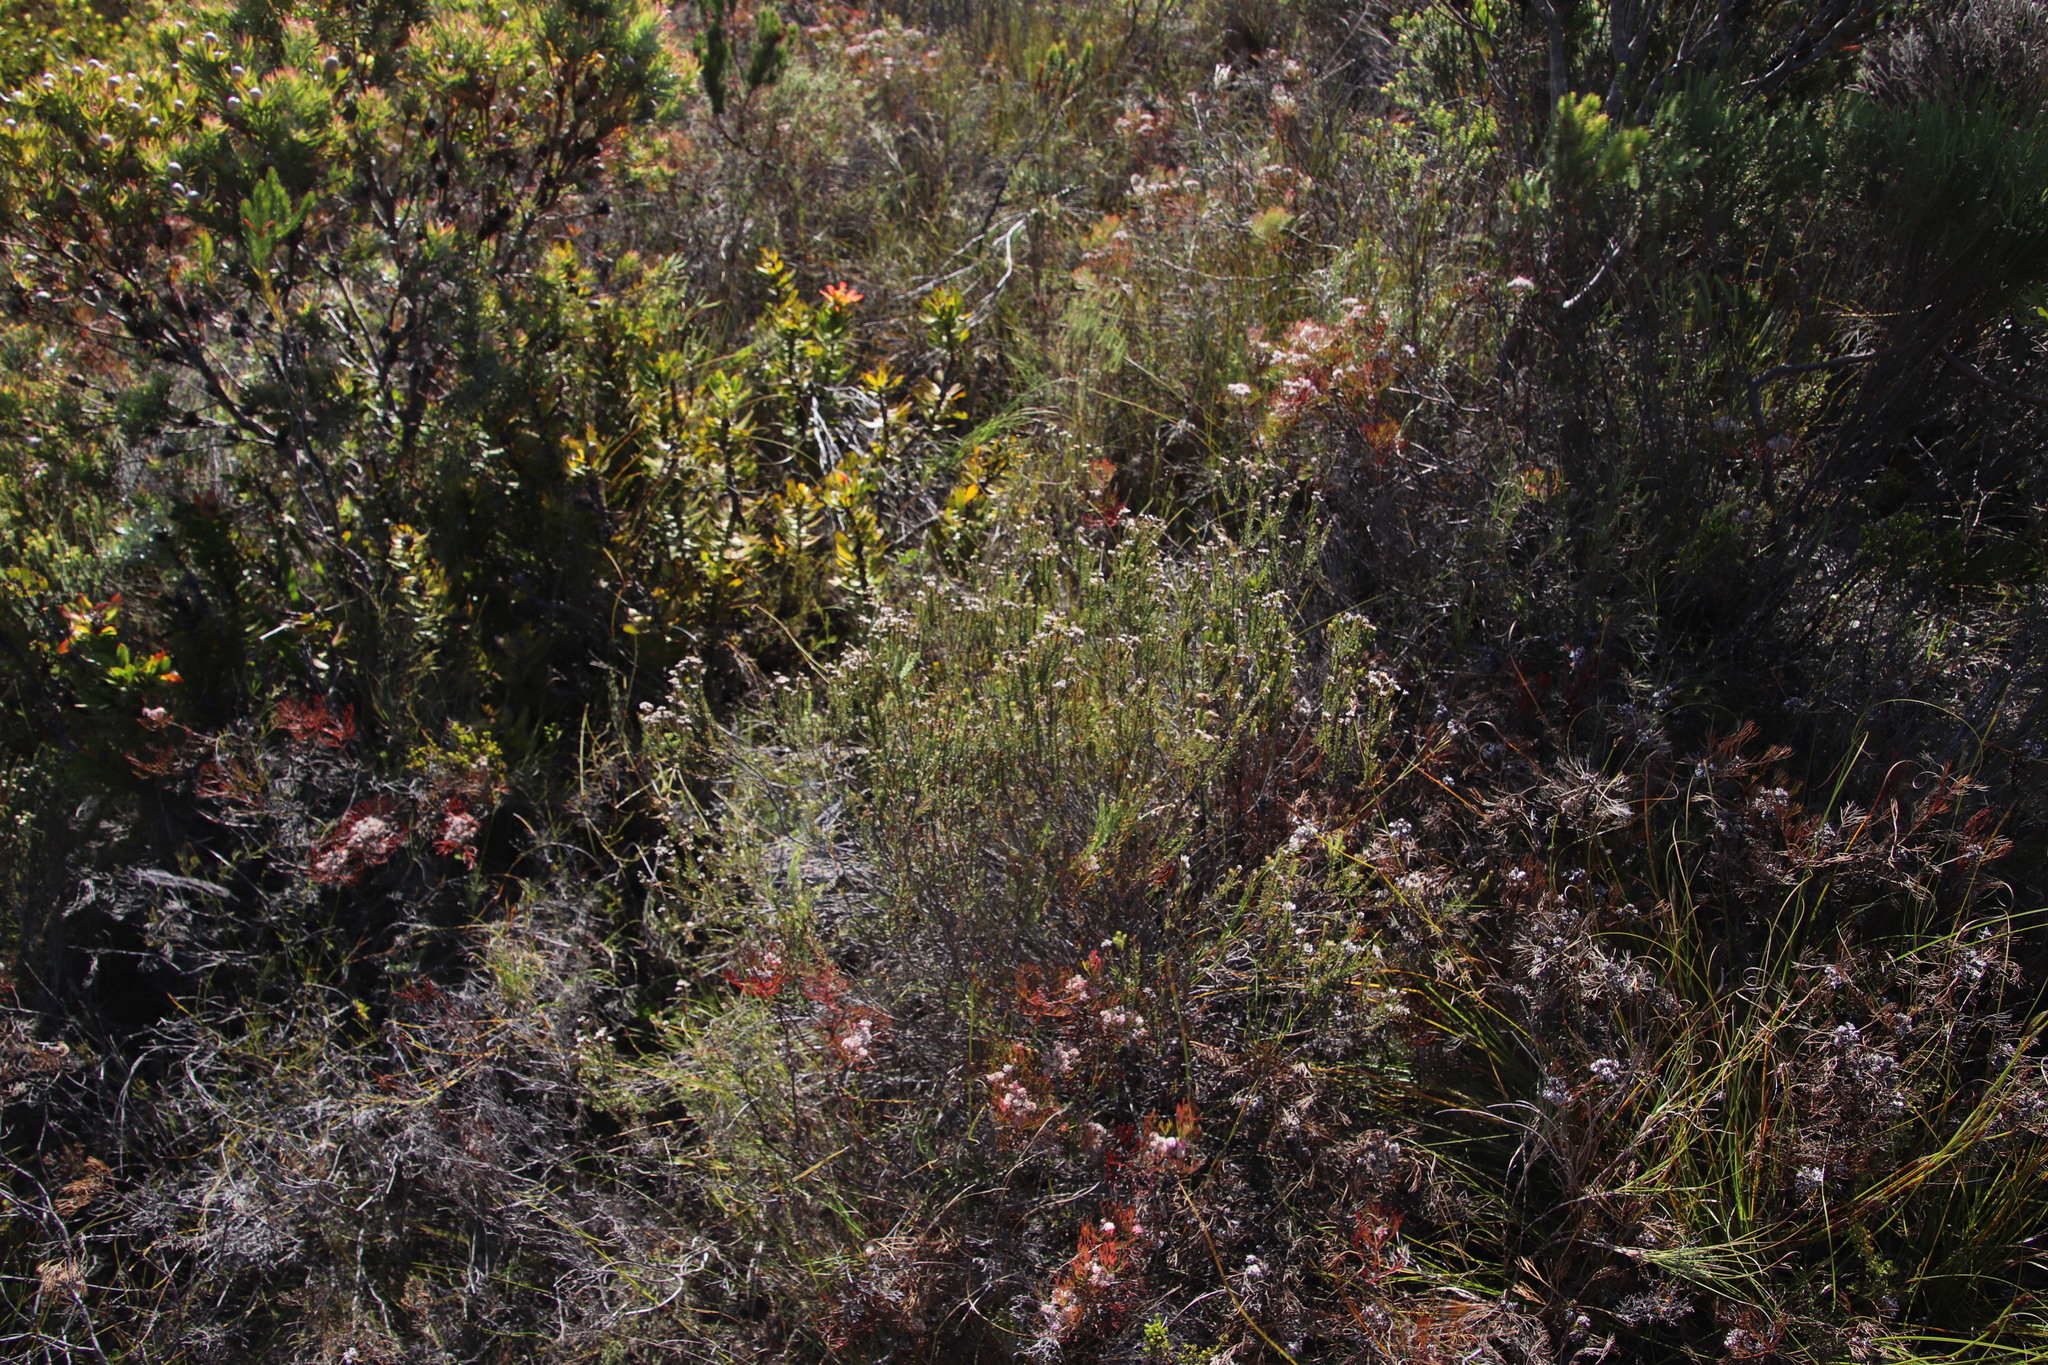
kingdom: Plantae
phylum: Tracheophyta
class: Magnoliopsida
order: Bruniales
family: Bruniaceae
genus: Staavia
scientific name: Staavia radiata
